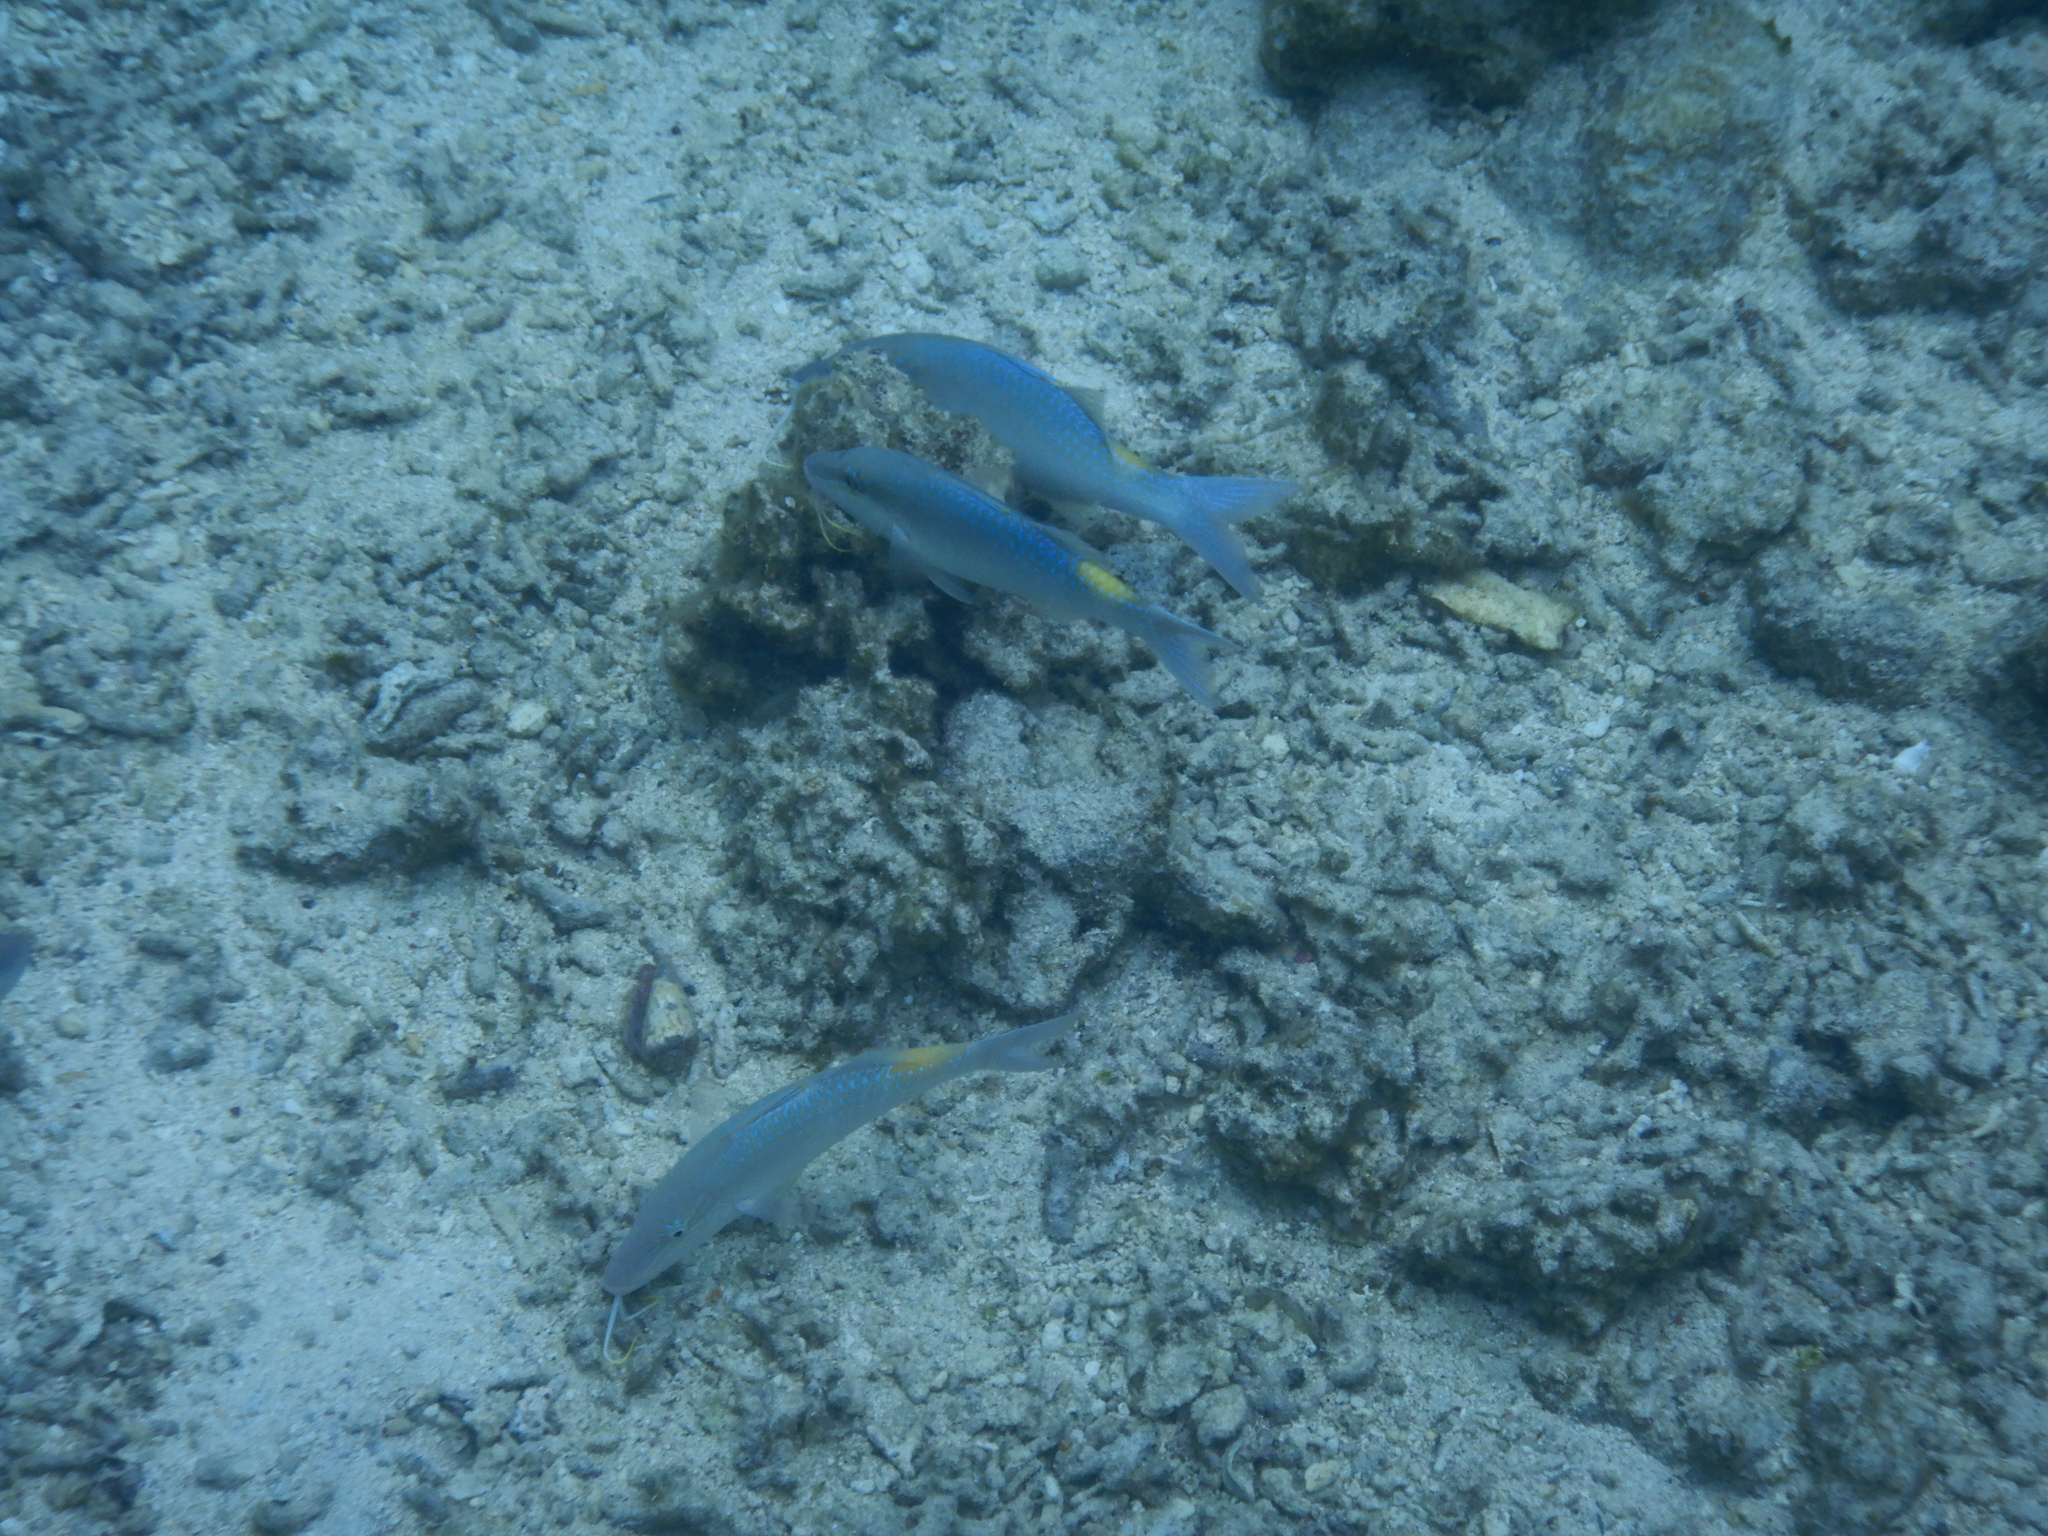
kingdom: Animalia
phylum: Chordata
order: Perciformes
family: Mullidae
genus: Parupeneus
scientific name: Parupeneus cyclostomus
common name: Goldsaddle goatfish
